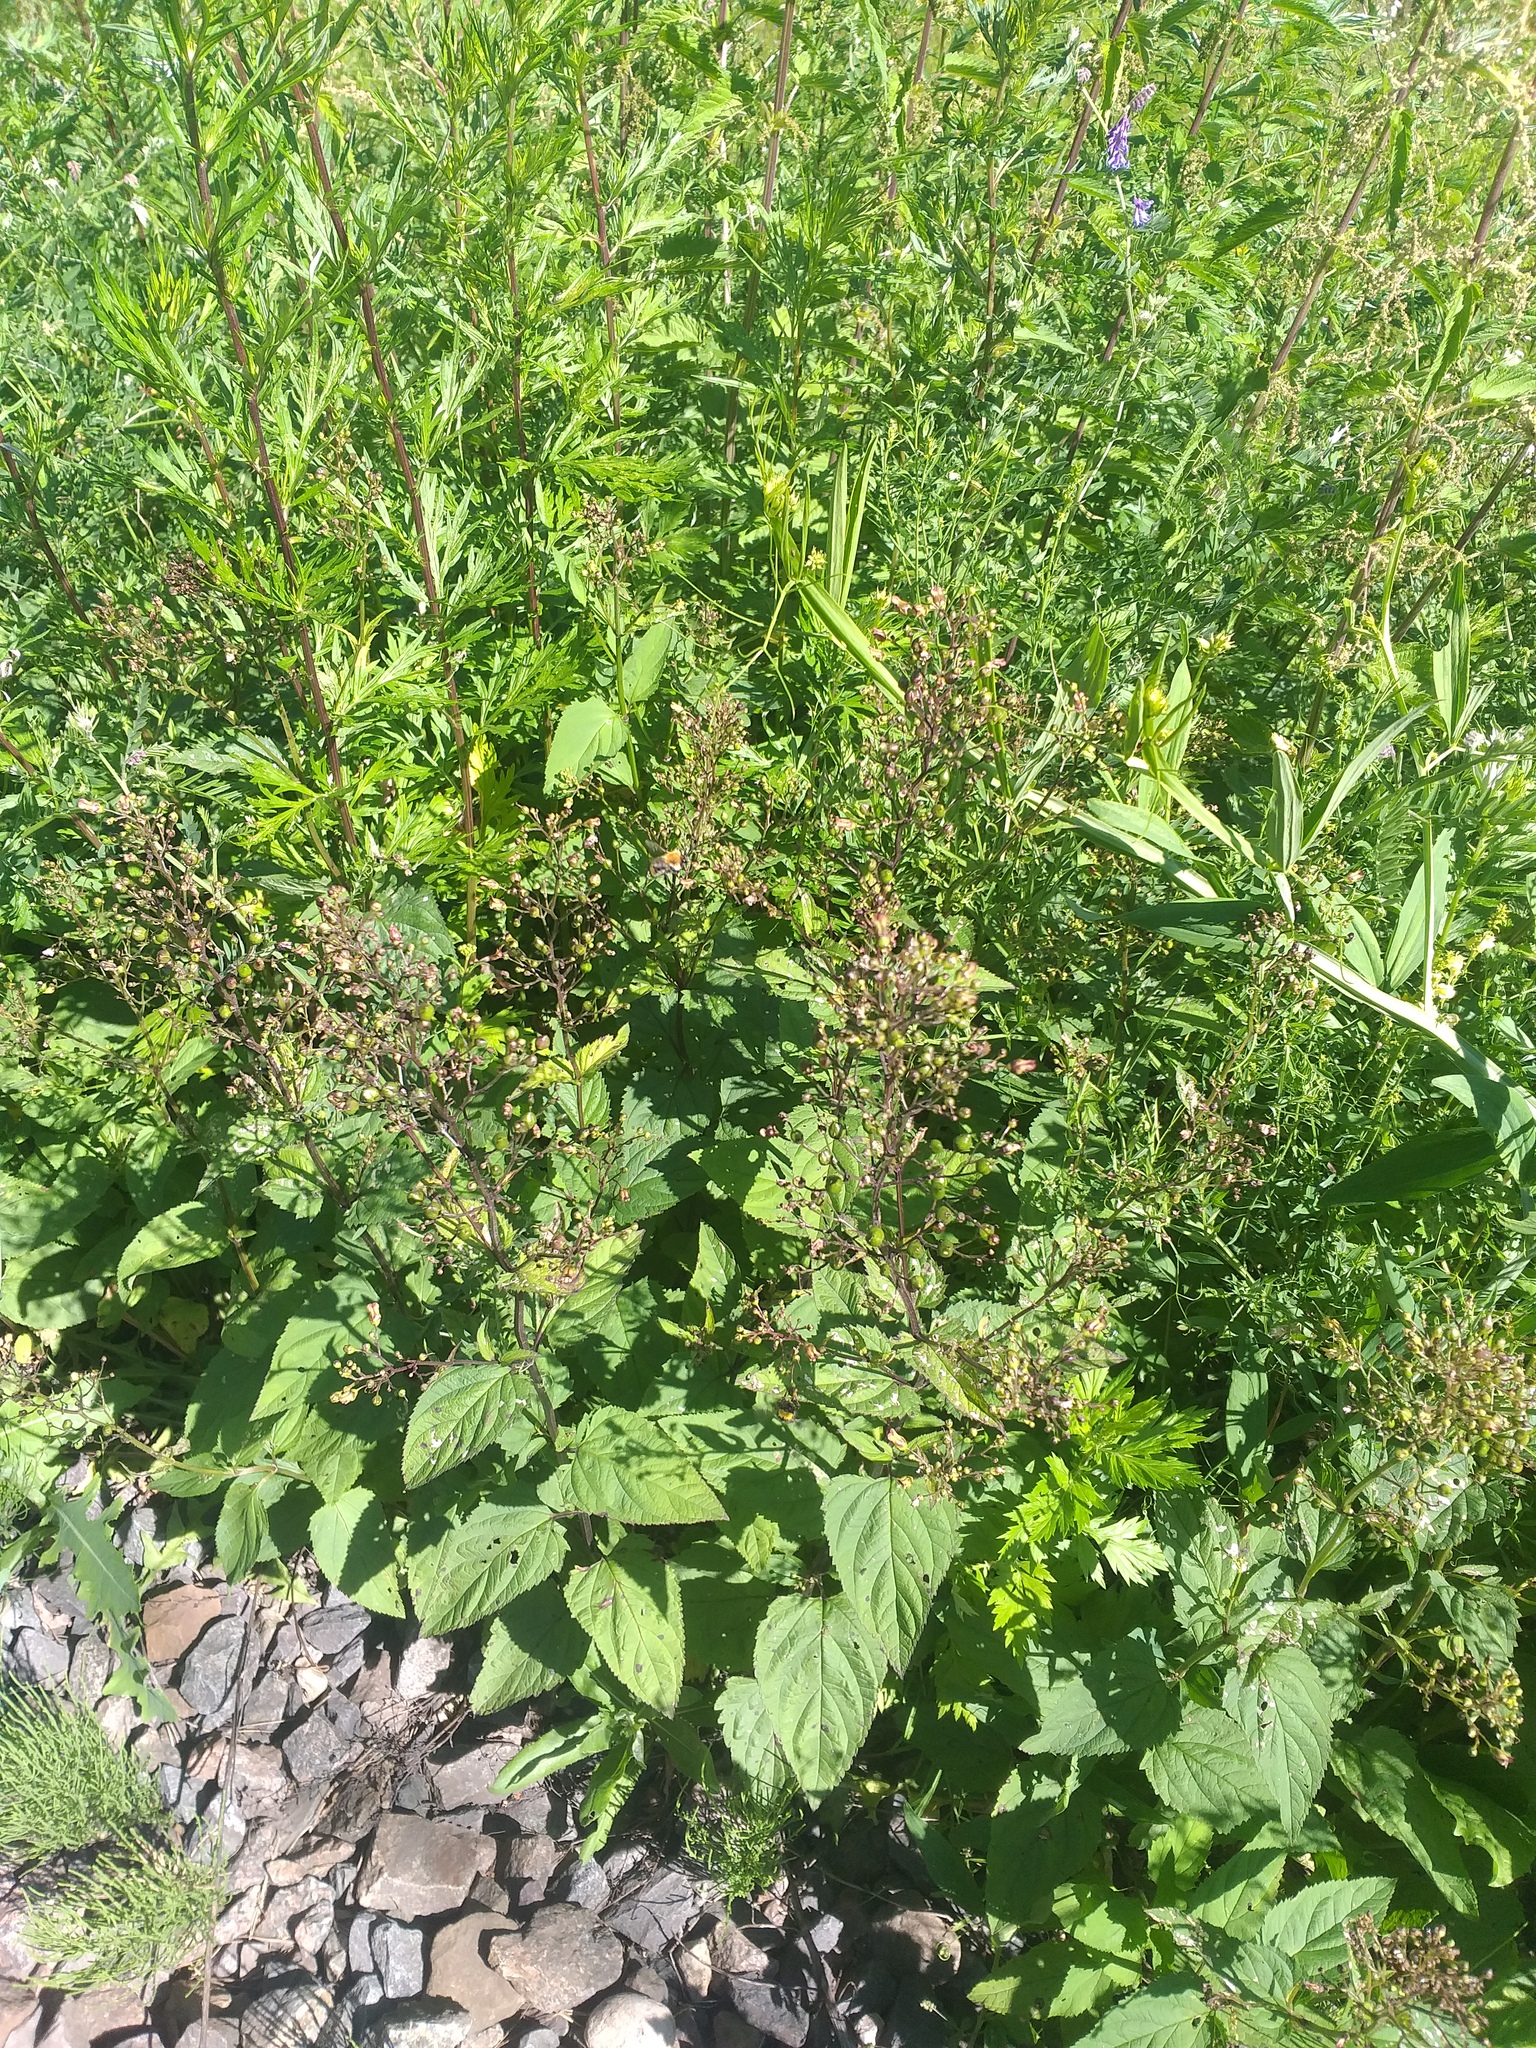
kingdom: Plantae
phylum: Tracheophyta
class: Magnoliopsida
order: Lamiales
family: Scrophulariaceae
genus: Scrophularia
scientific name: Scrophularia nodosa
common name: Common figwort
